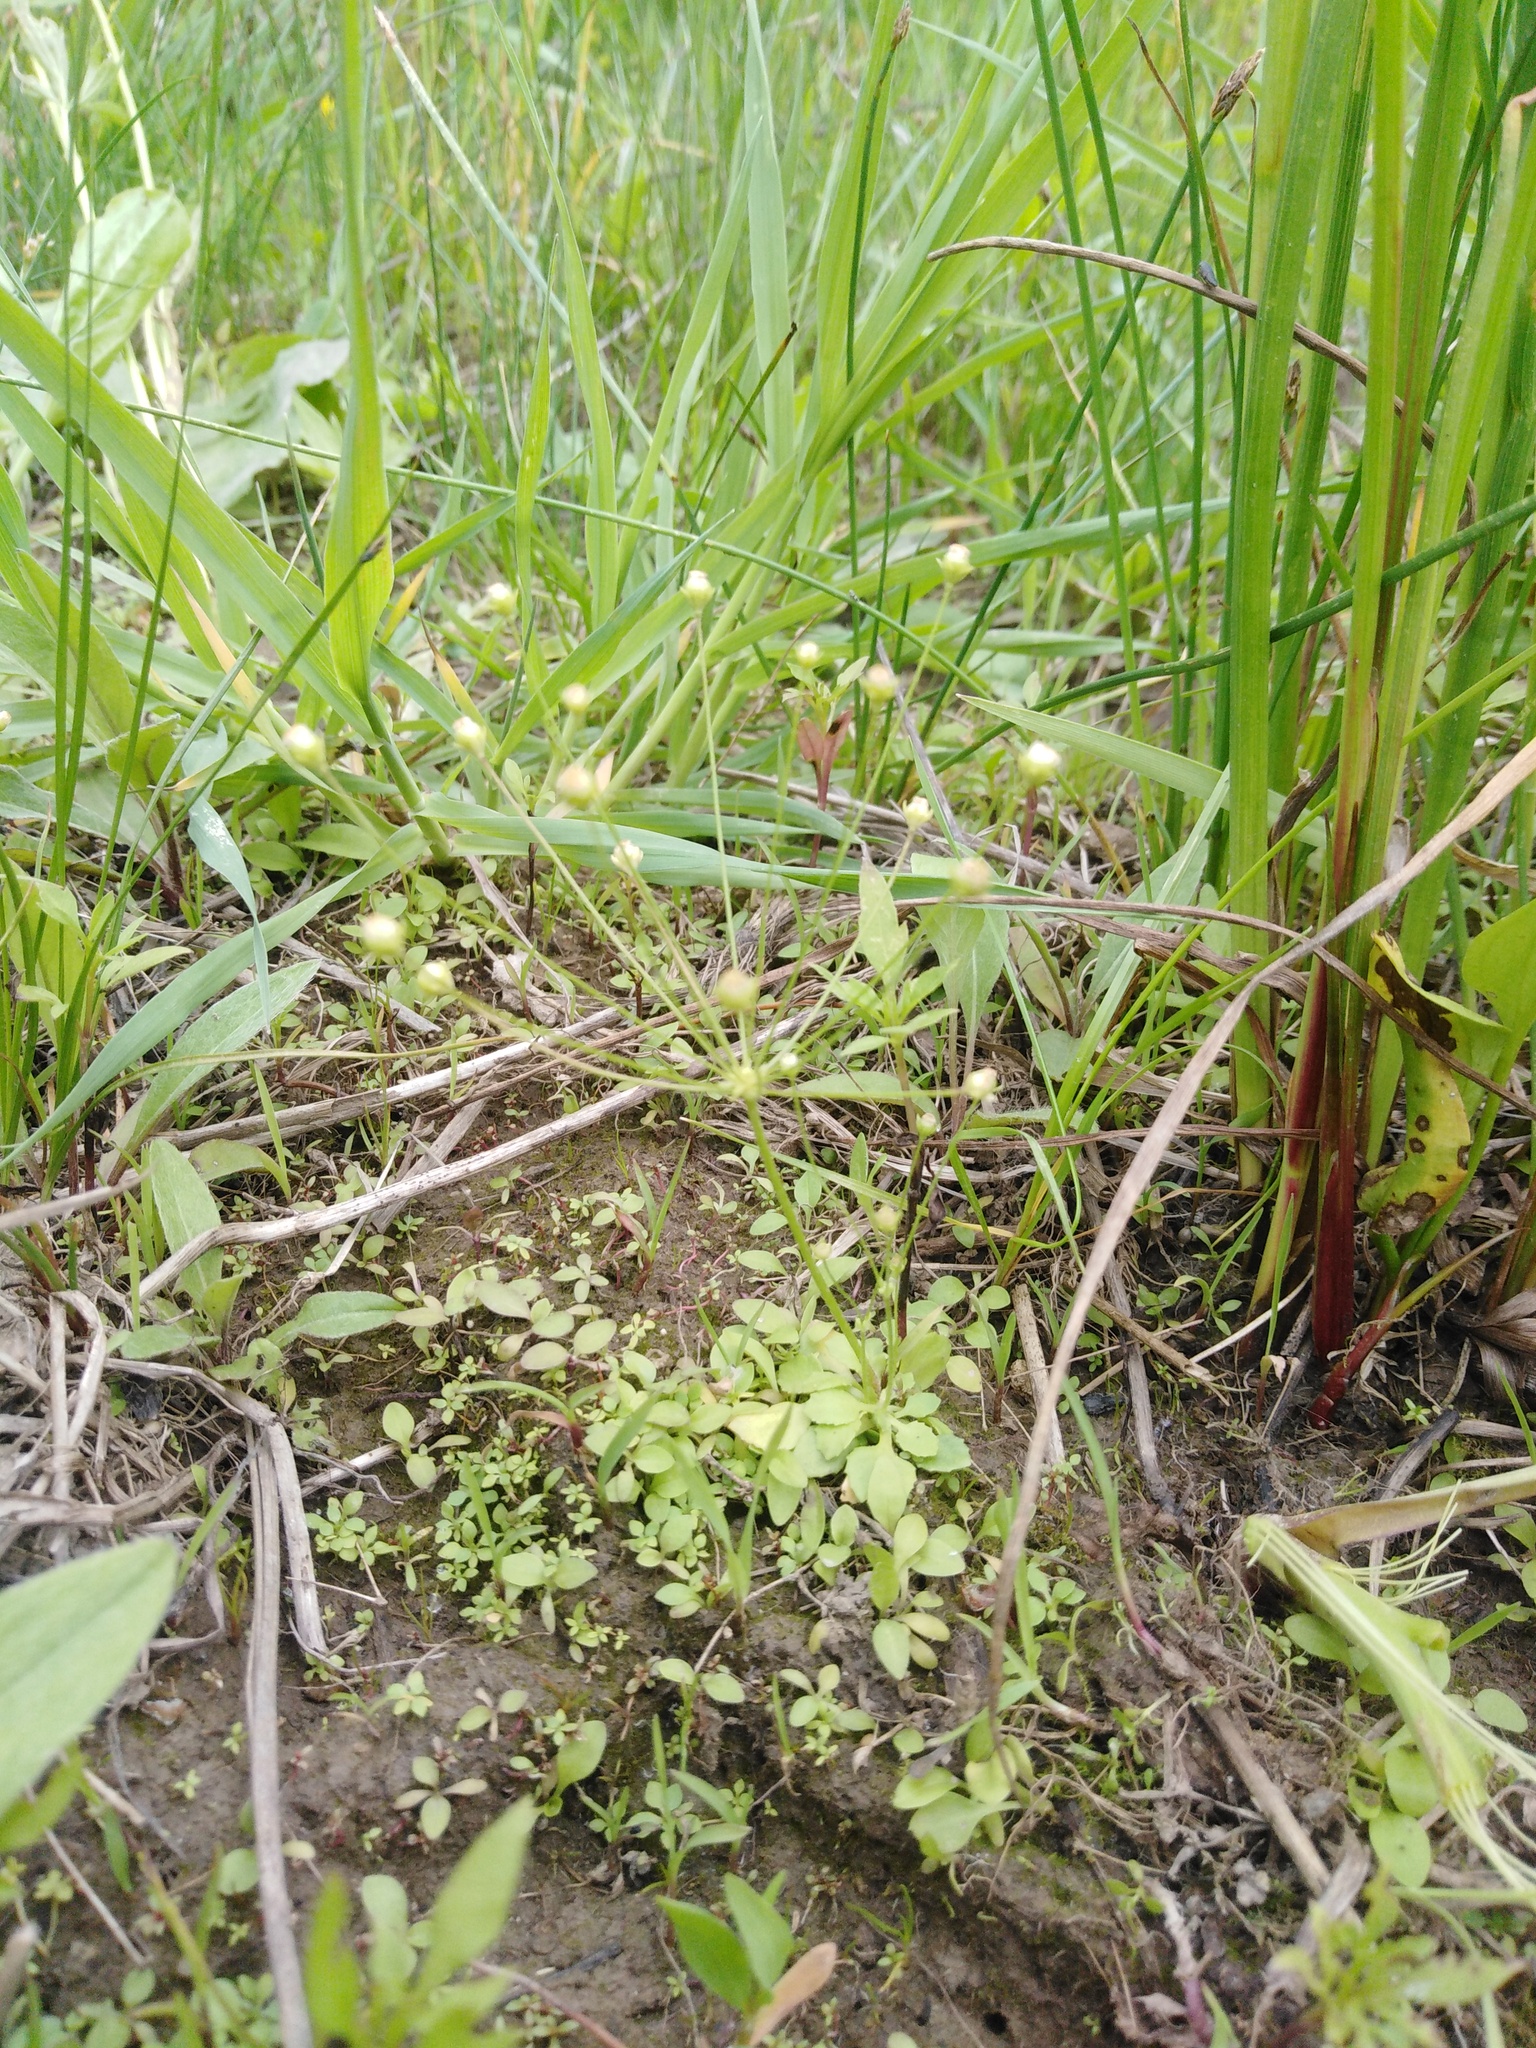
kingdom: Plantae
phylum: Tracheophyta
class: Magnoliopsida
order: Ericales
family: Primulaceae
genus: Androsace
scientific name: Androsace filiformis
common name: Filiform rock jasmine
